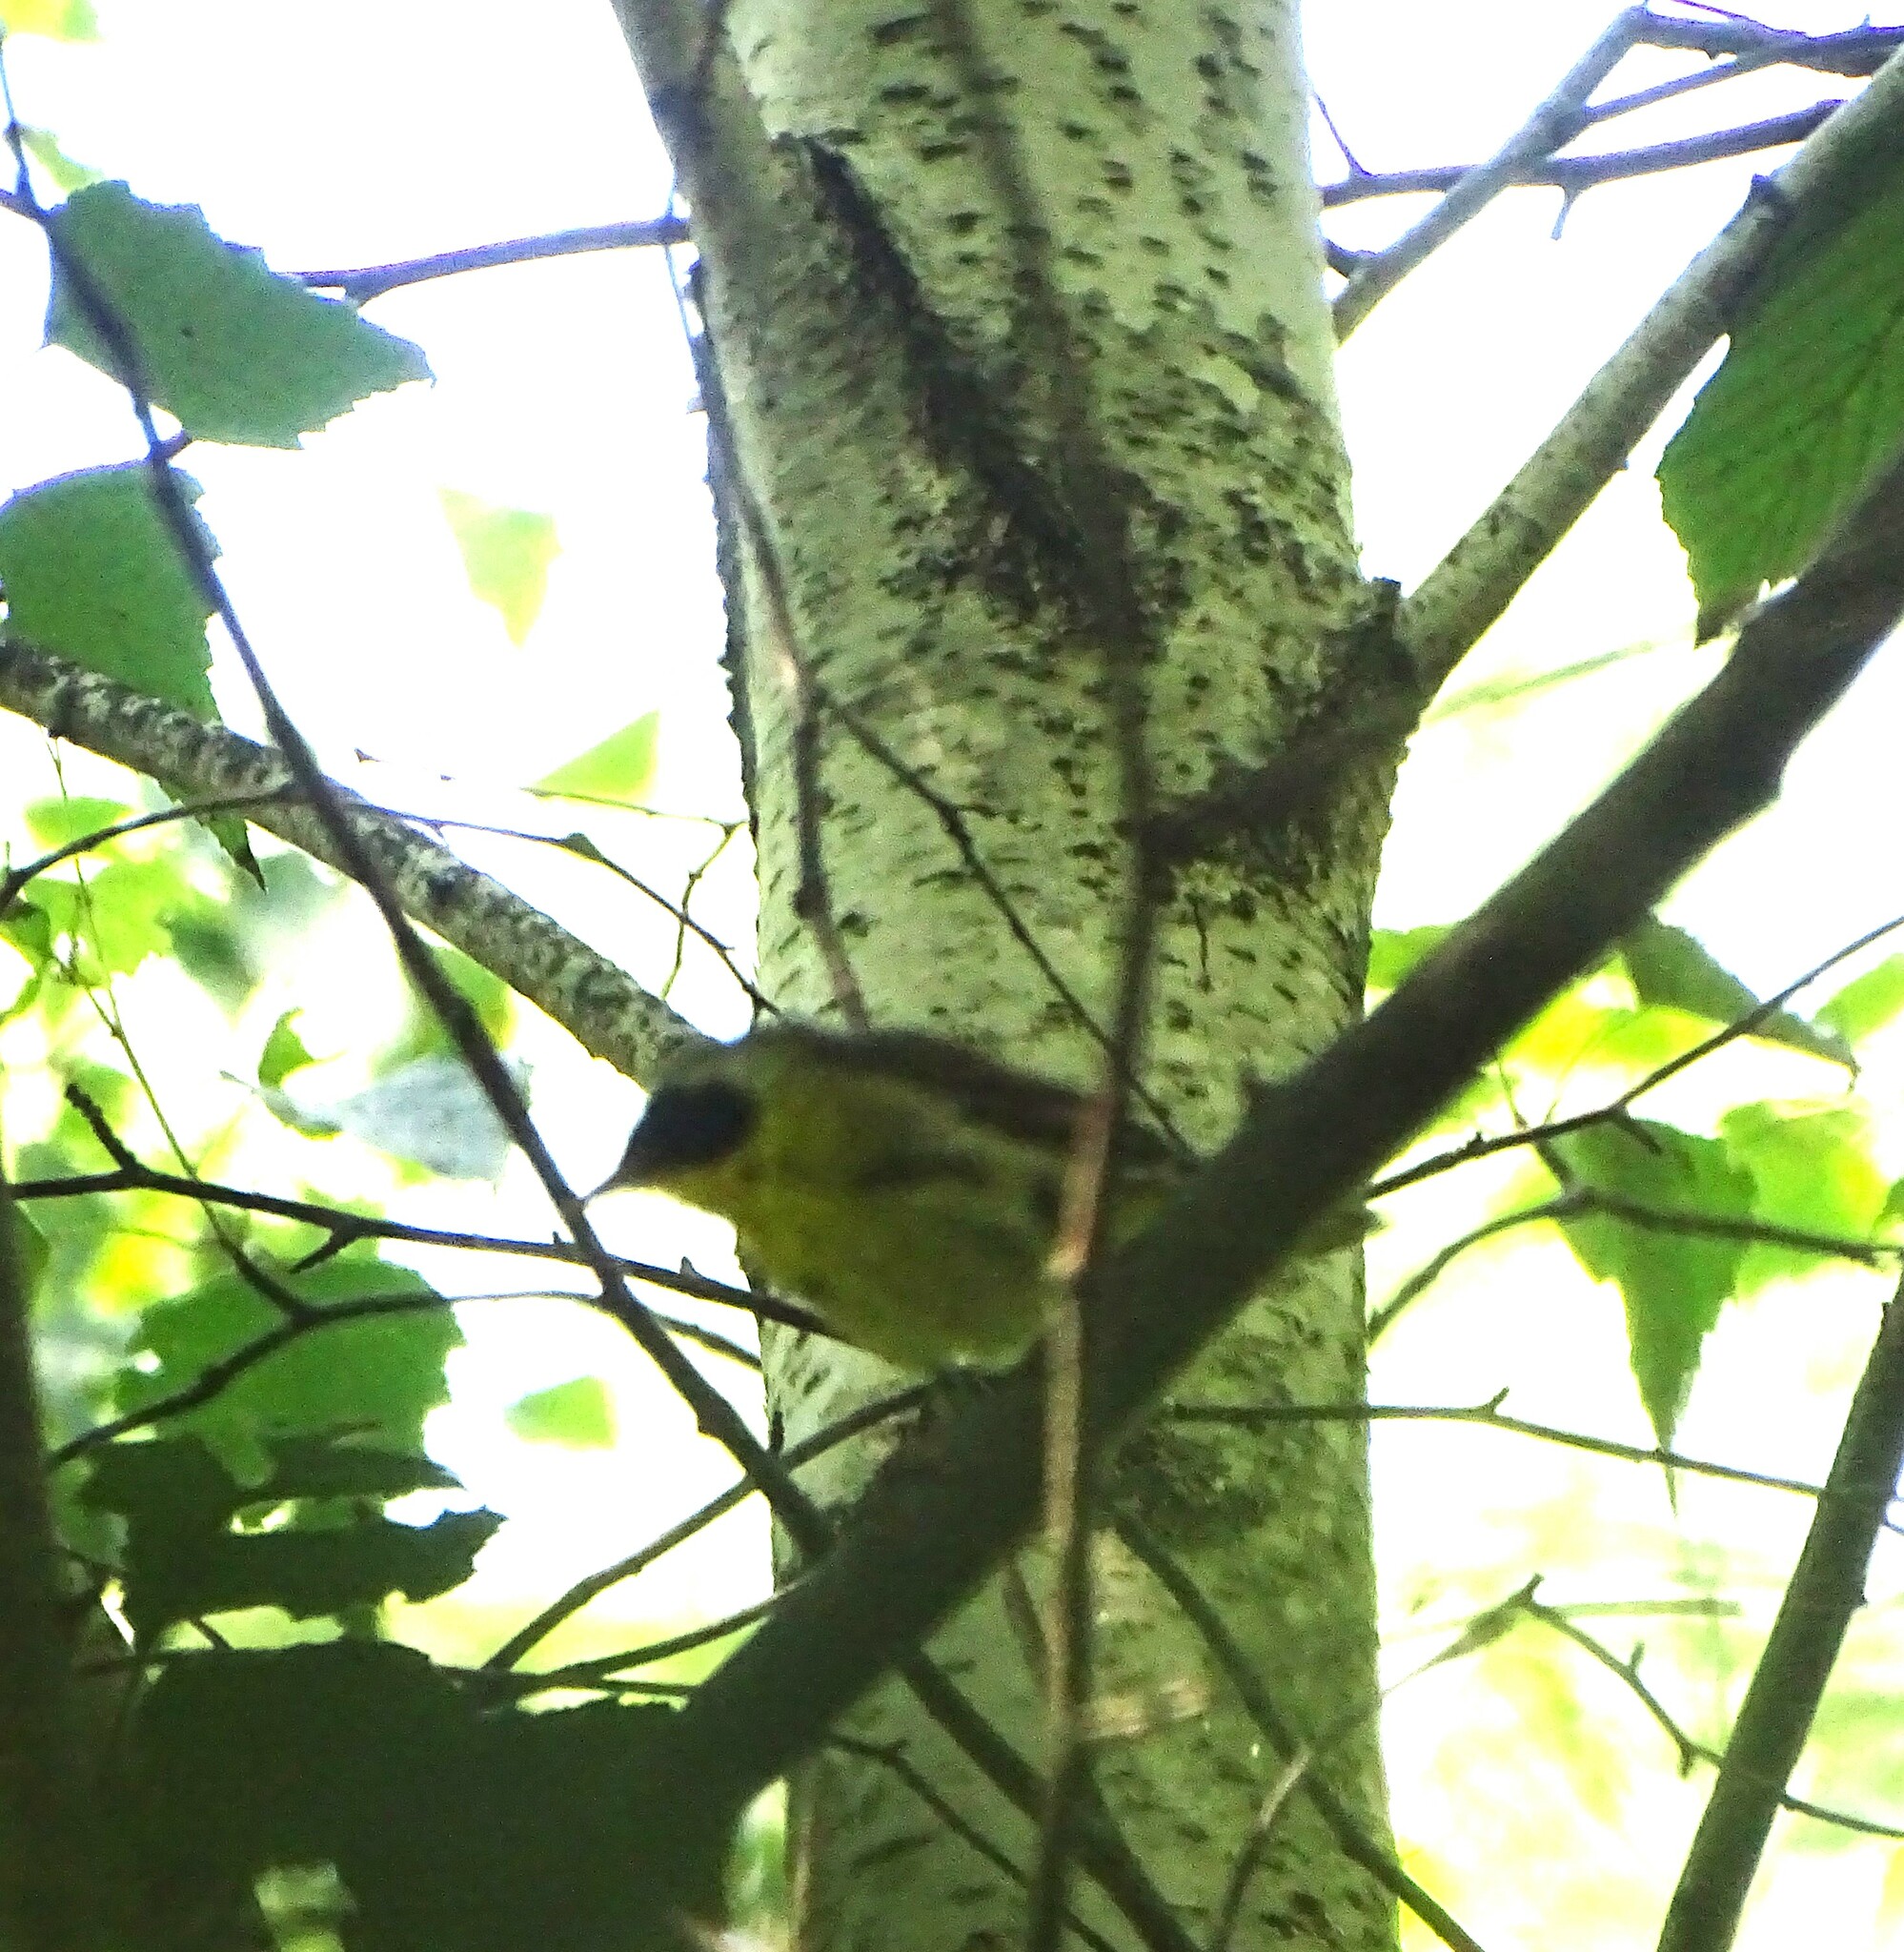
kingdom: Animalia
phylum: Chordata
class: Aves
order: Passeriformes
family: Parulidae
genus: Geothlypis
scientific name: Geothlypis trichas
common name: Common yellowthroat
